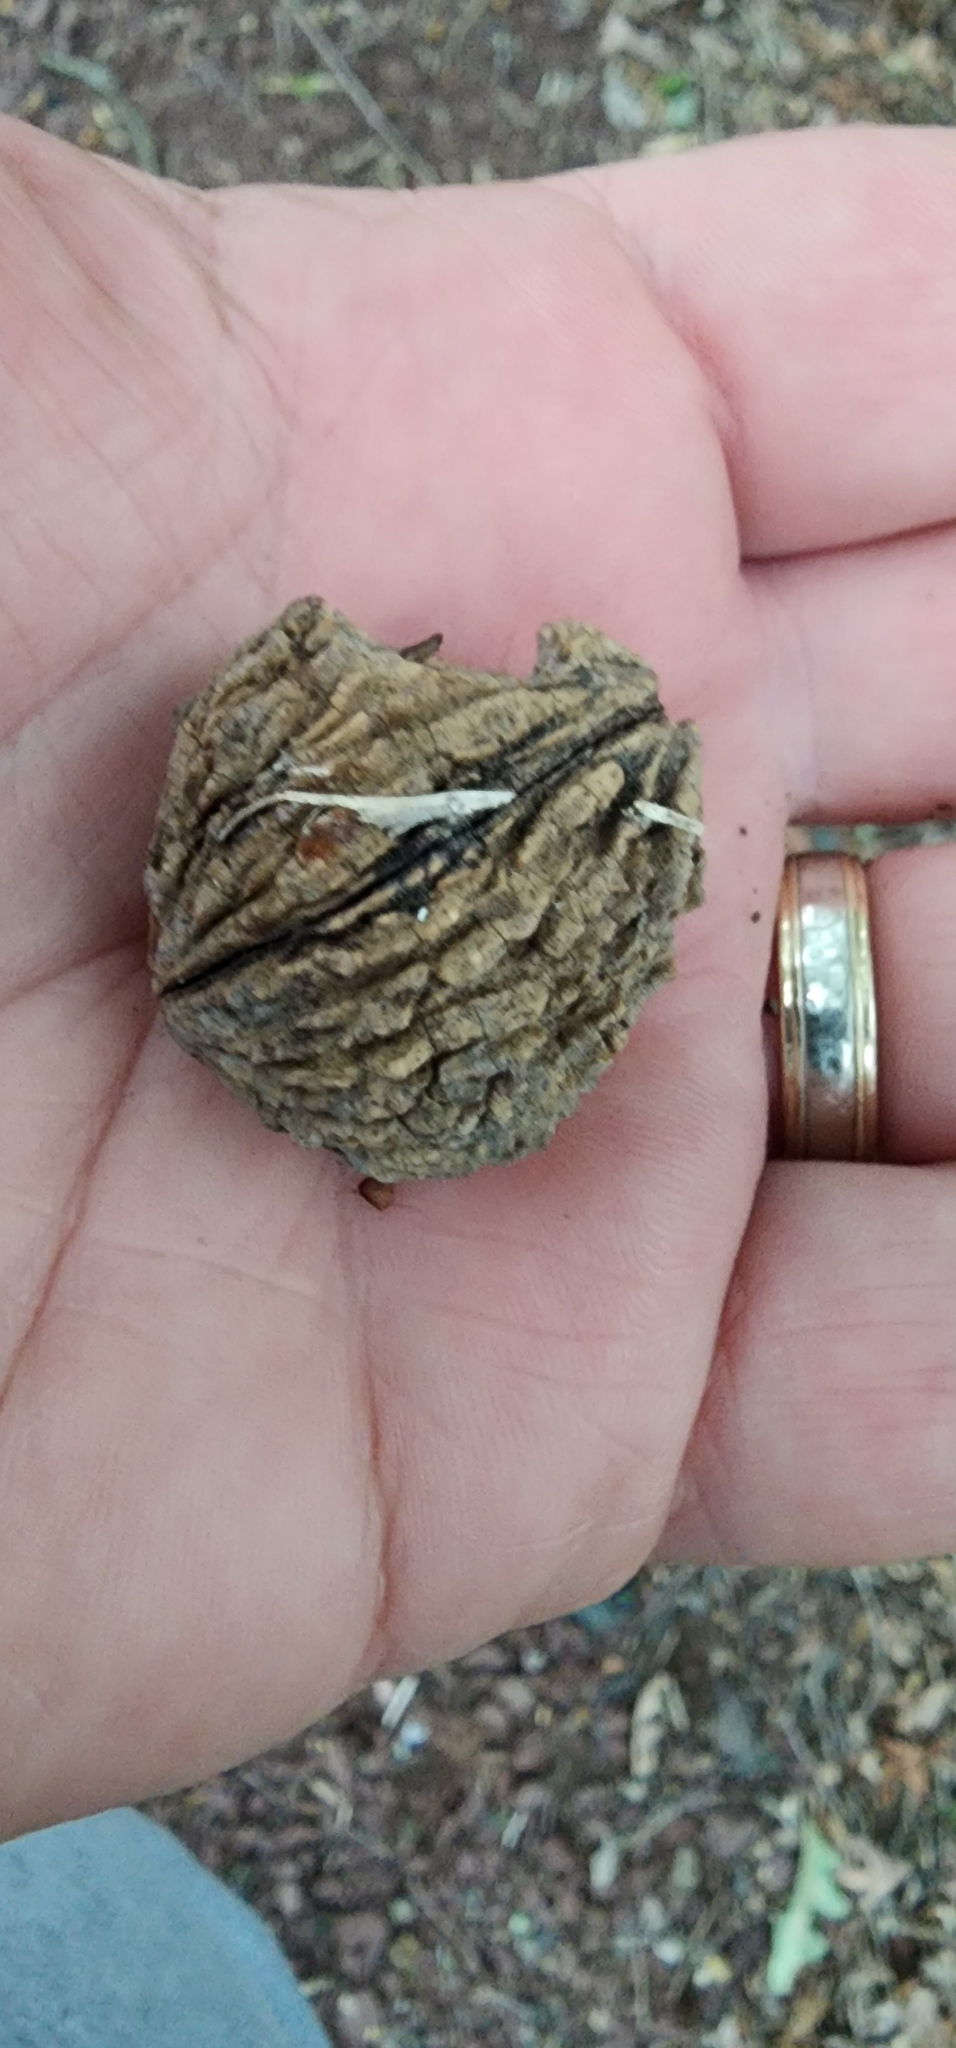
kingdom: Plantae
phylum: Tracheophyta
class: Magnoliopsida
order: Fagales
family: Juglandaceae
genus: Juglans
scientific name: Juglans nigra
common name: Black walnut
